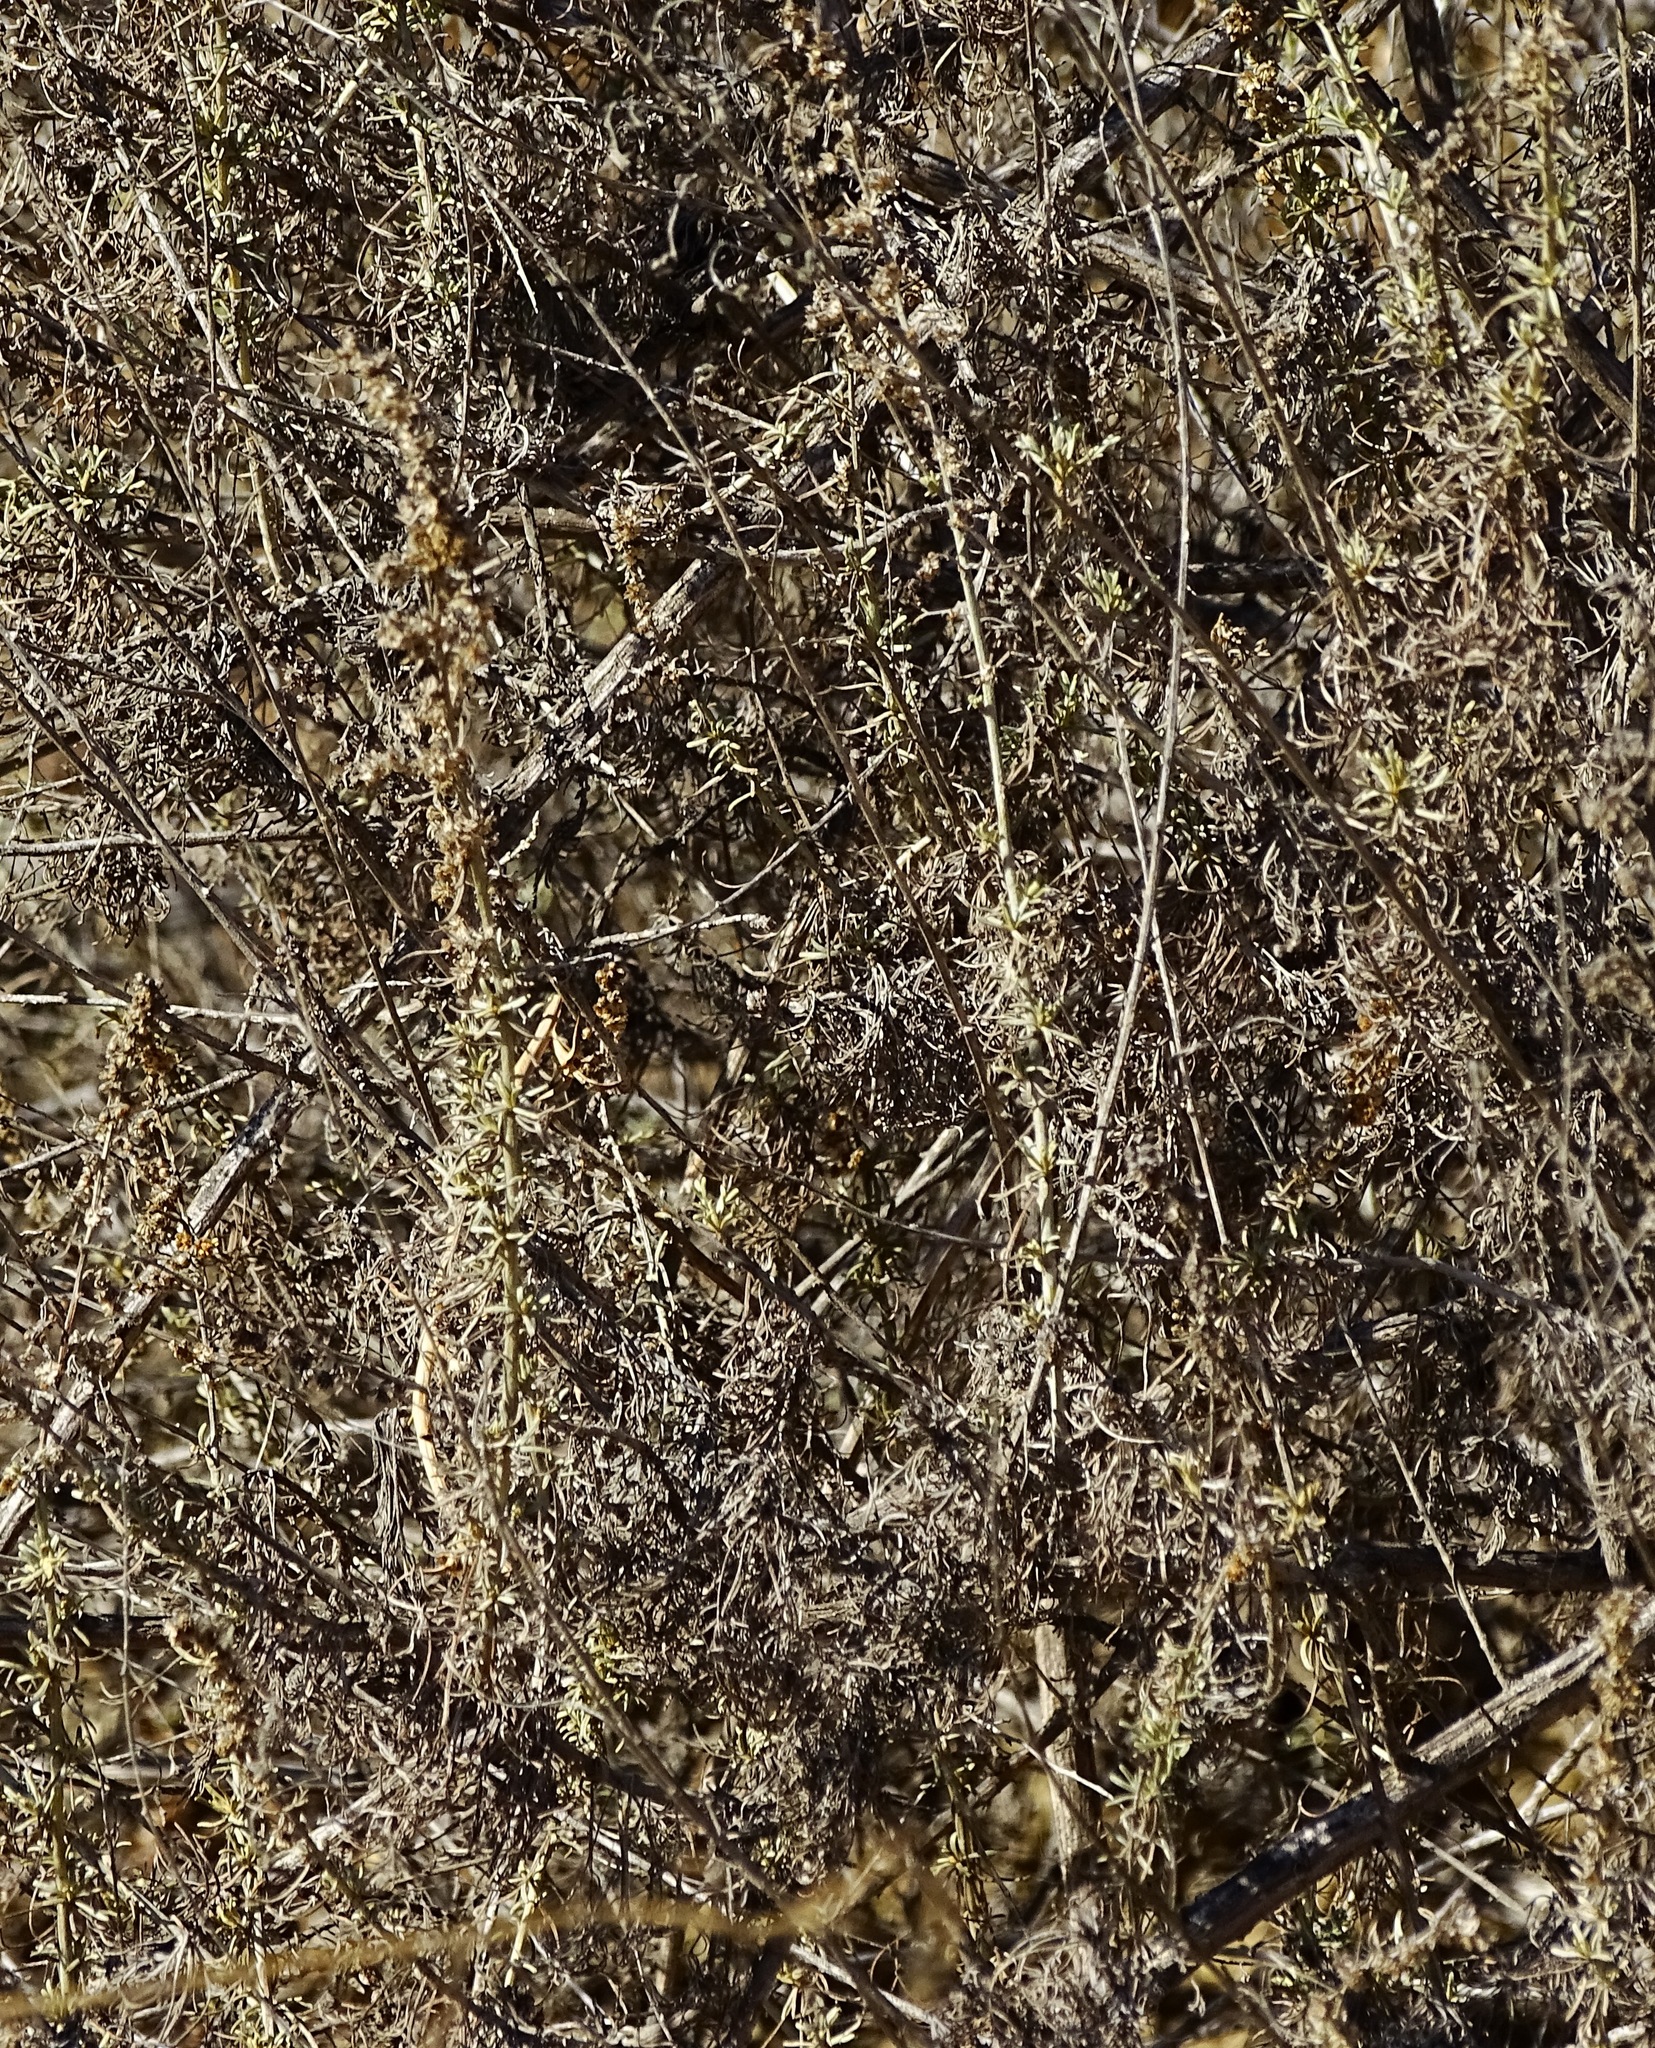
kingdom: Plantae
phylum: Tracheophyta
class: Magnoliopsida
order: Asterales
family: Asteraceae
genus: Artemisia
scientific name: Artemisia californica
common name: California sagebrush
